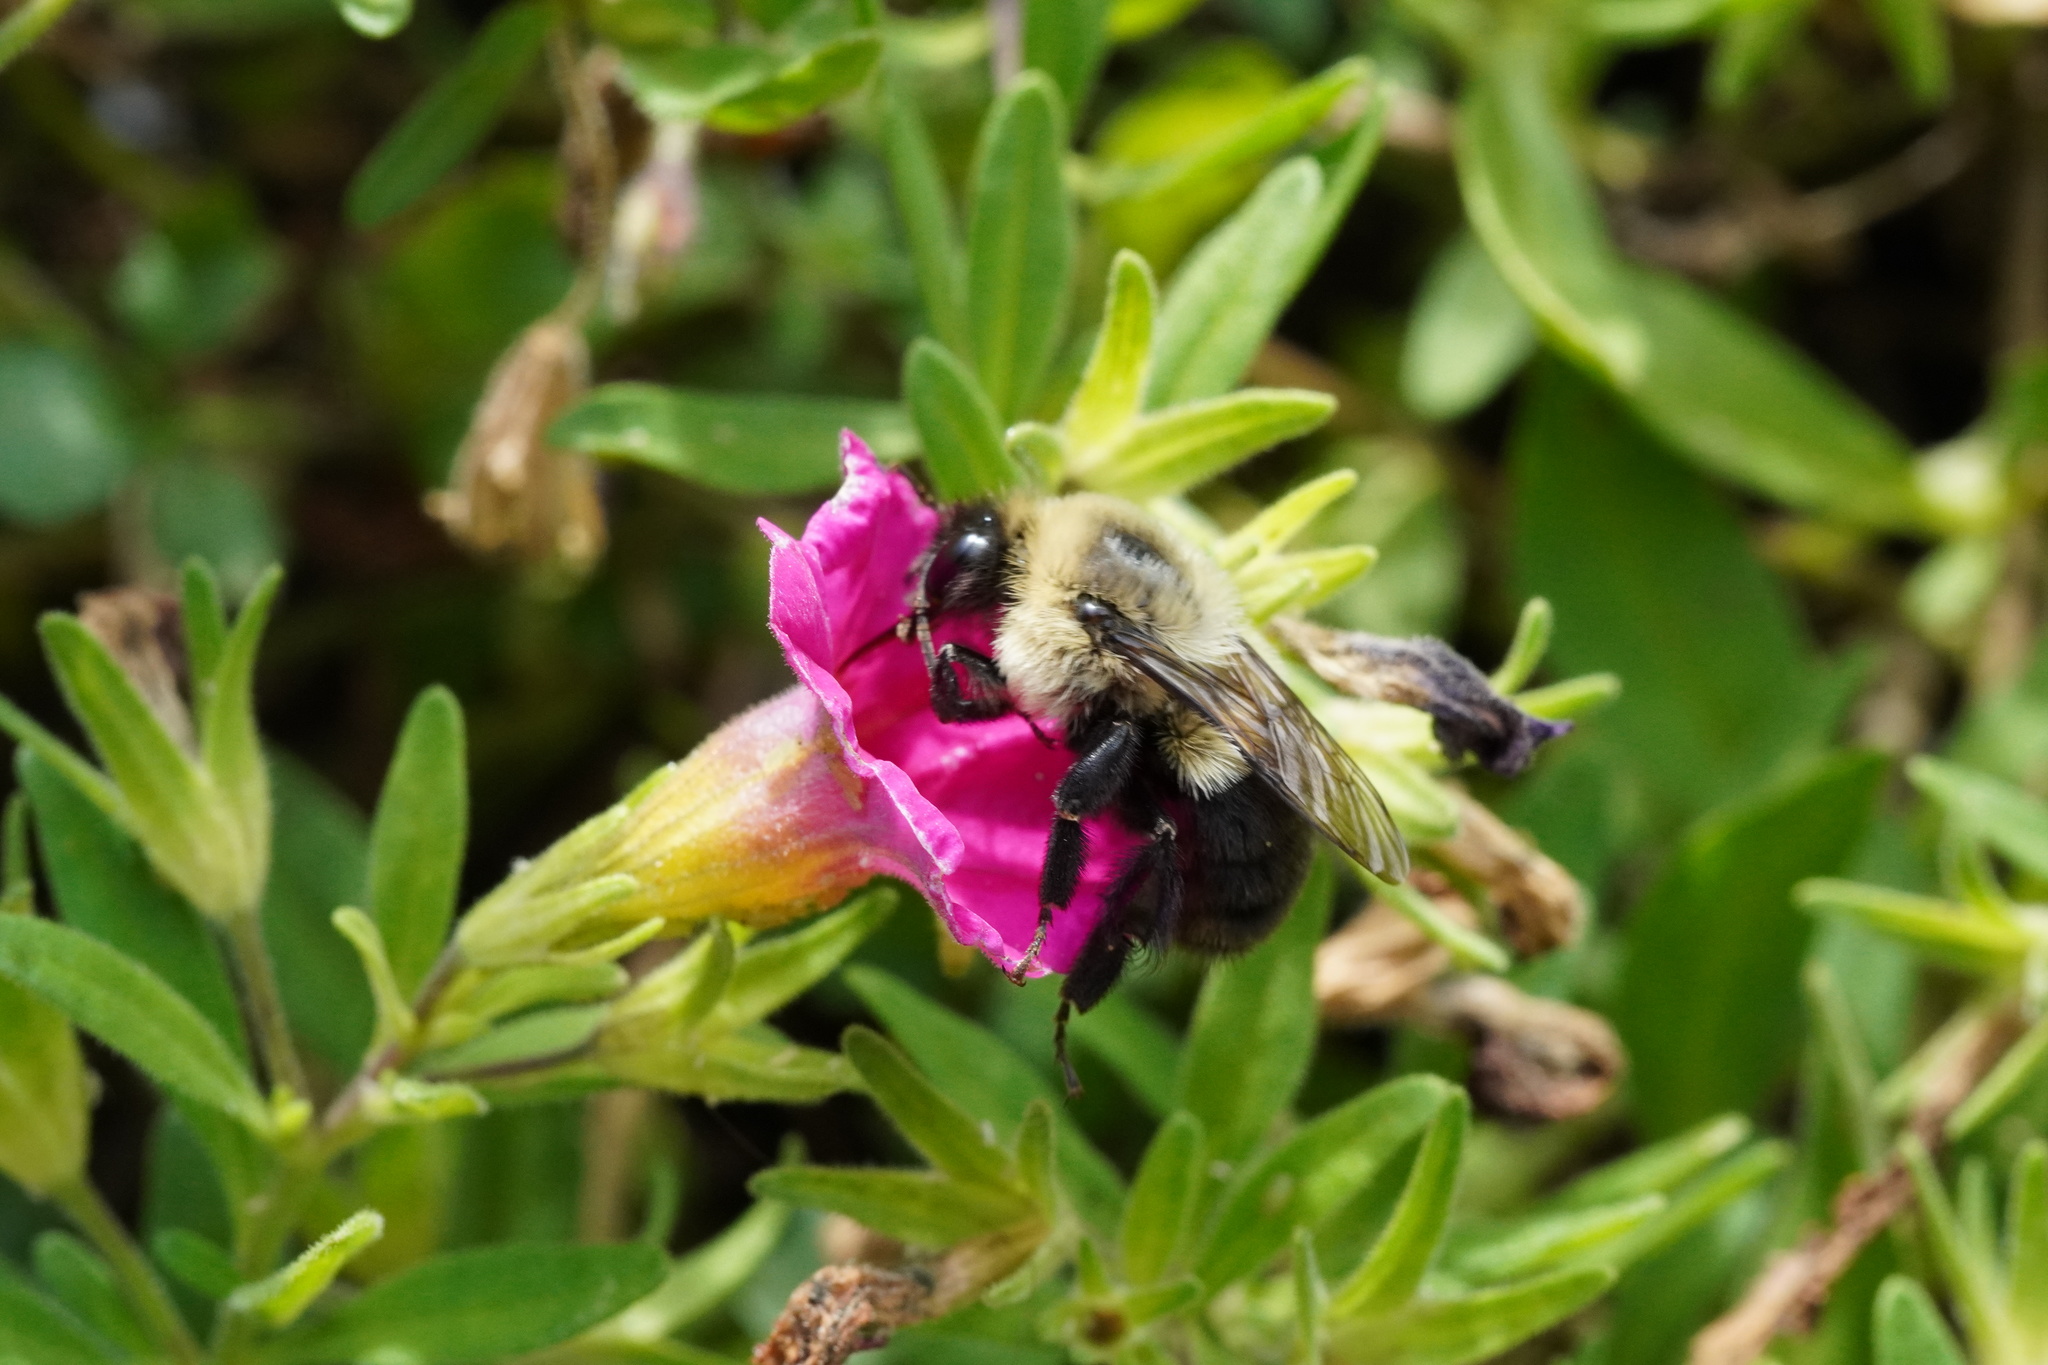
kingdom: Animalia
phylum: Arthropoda
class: Insecta
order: Hymenoptera
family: Apidae
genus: Bombus
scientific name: Bombus impatiens
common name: Common eastern bumble bee
